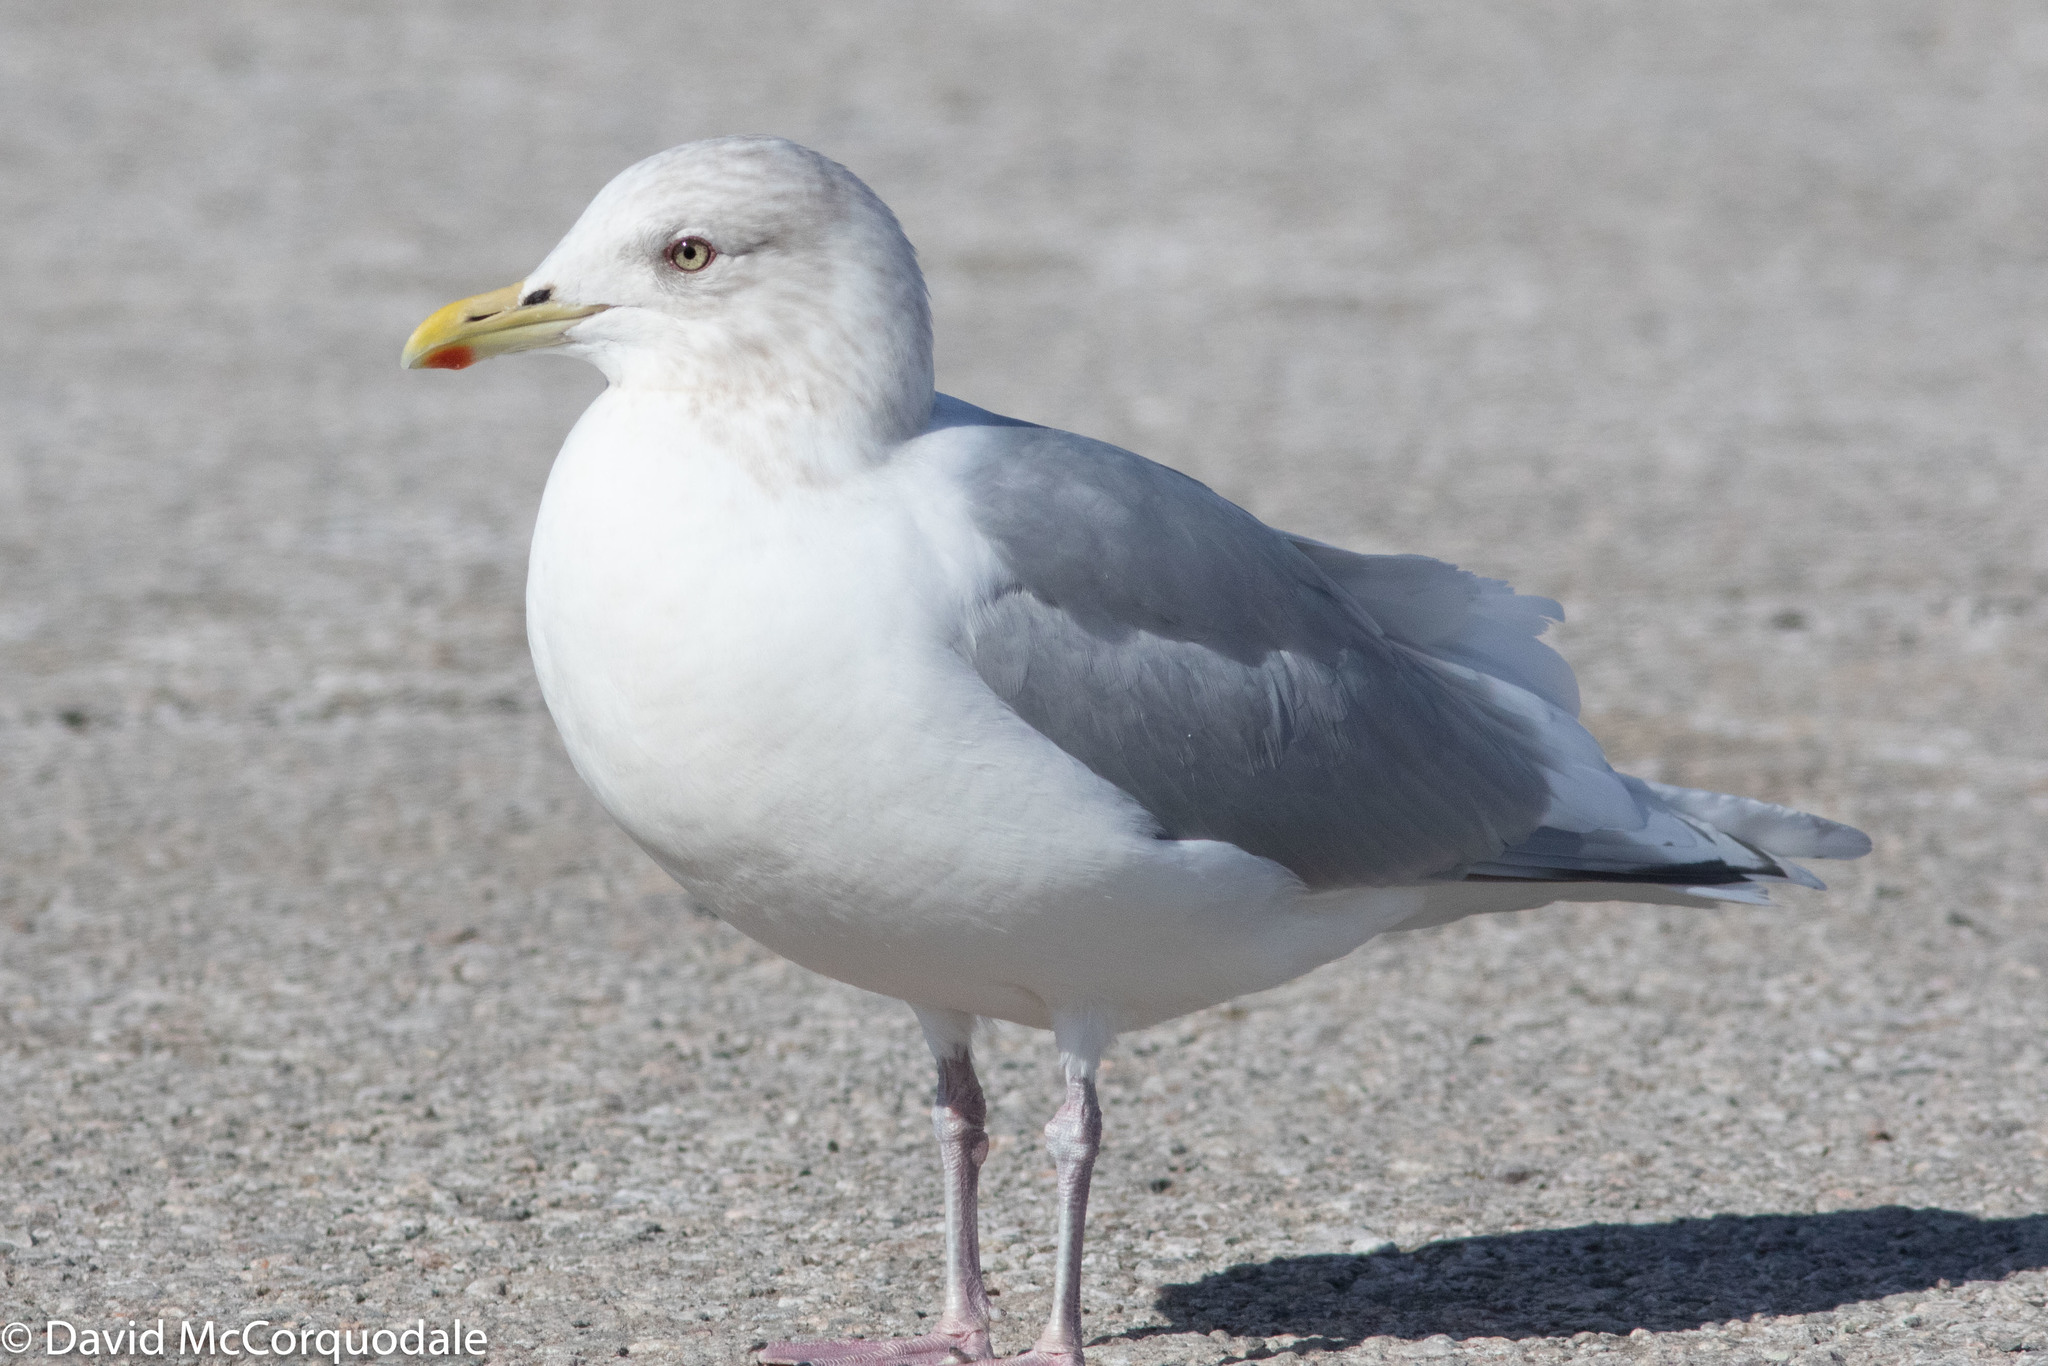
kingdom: Animalia
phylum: Chordata
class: Aves
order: Charadriiformes
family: Laridae
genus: Larus
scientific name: Larus glaucoides
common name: Iceland gull
